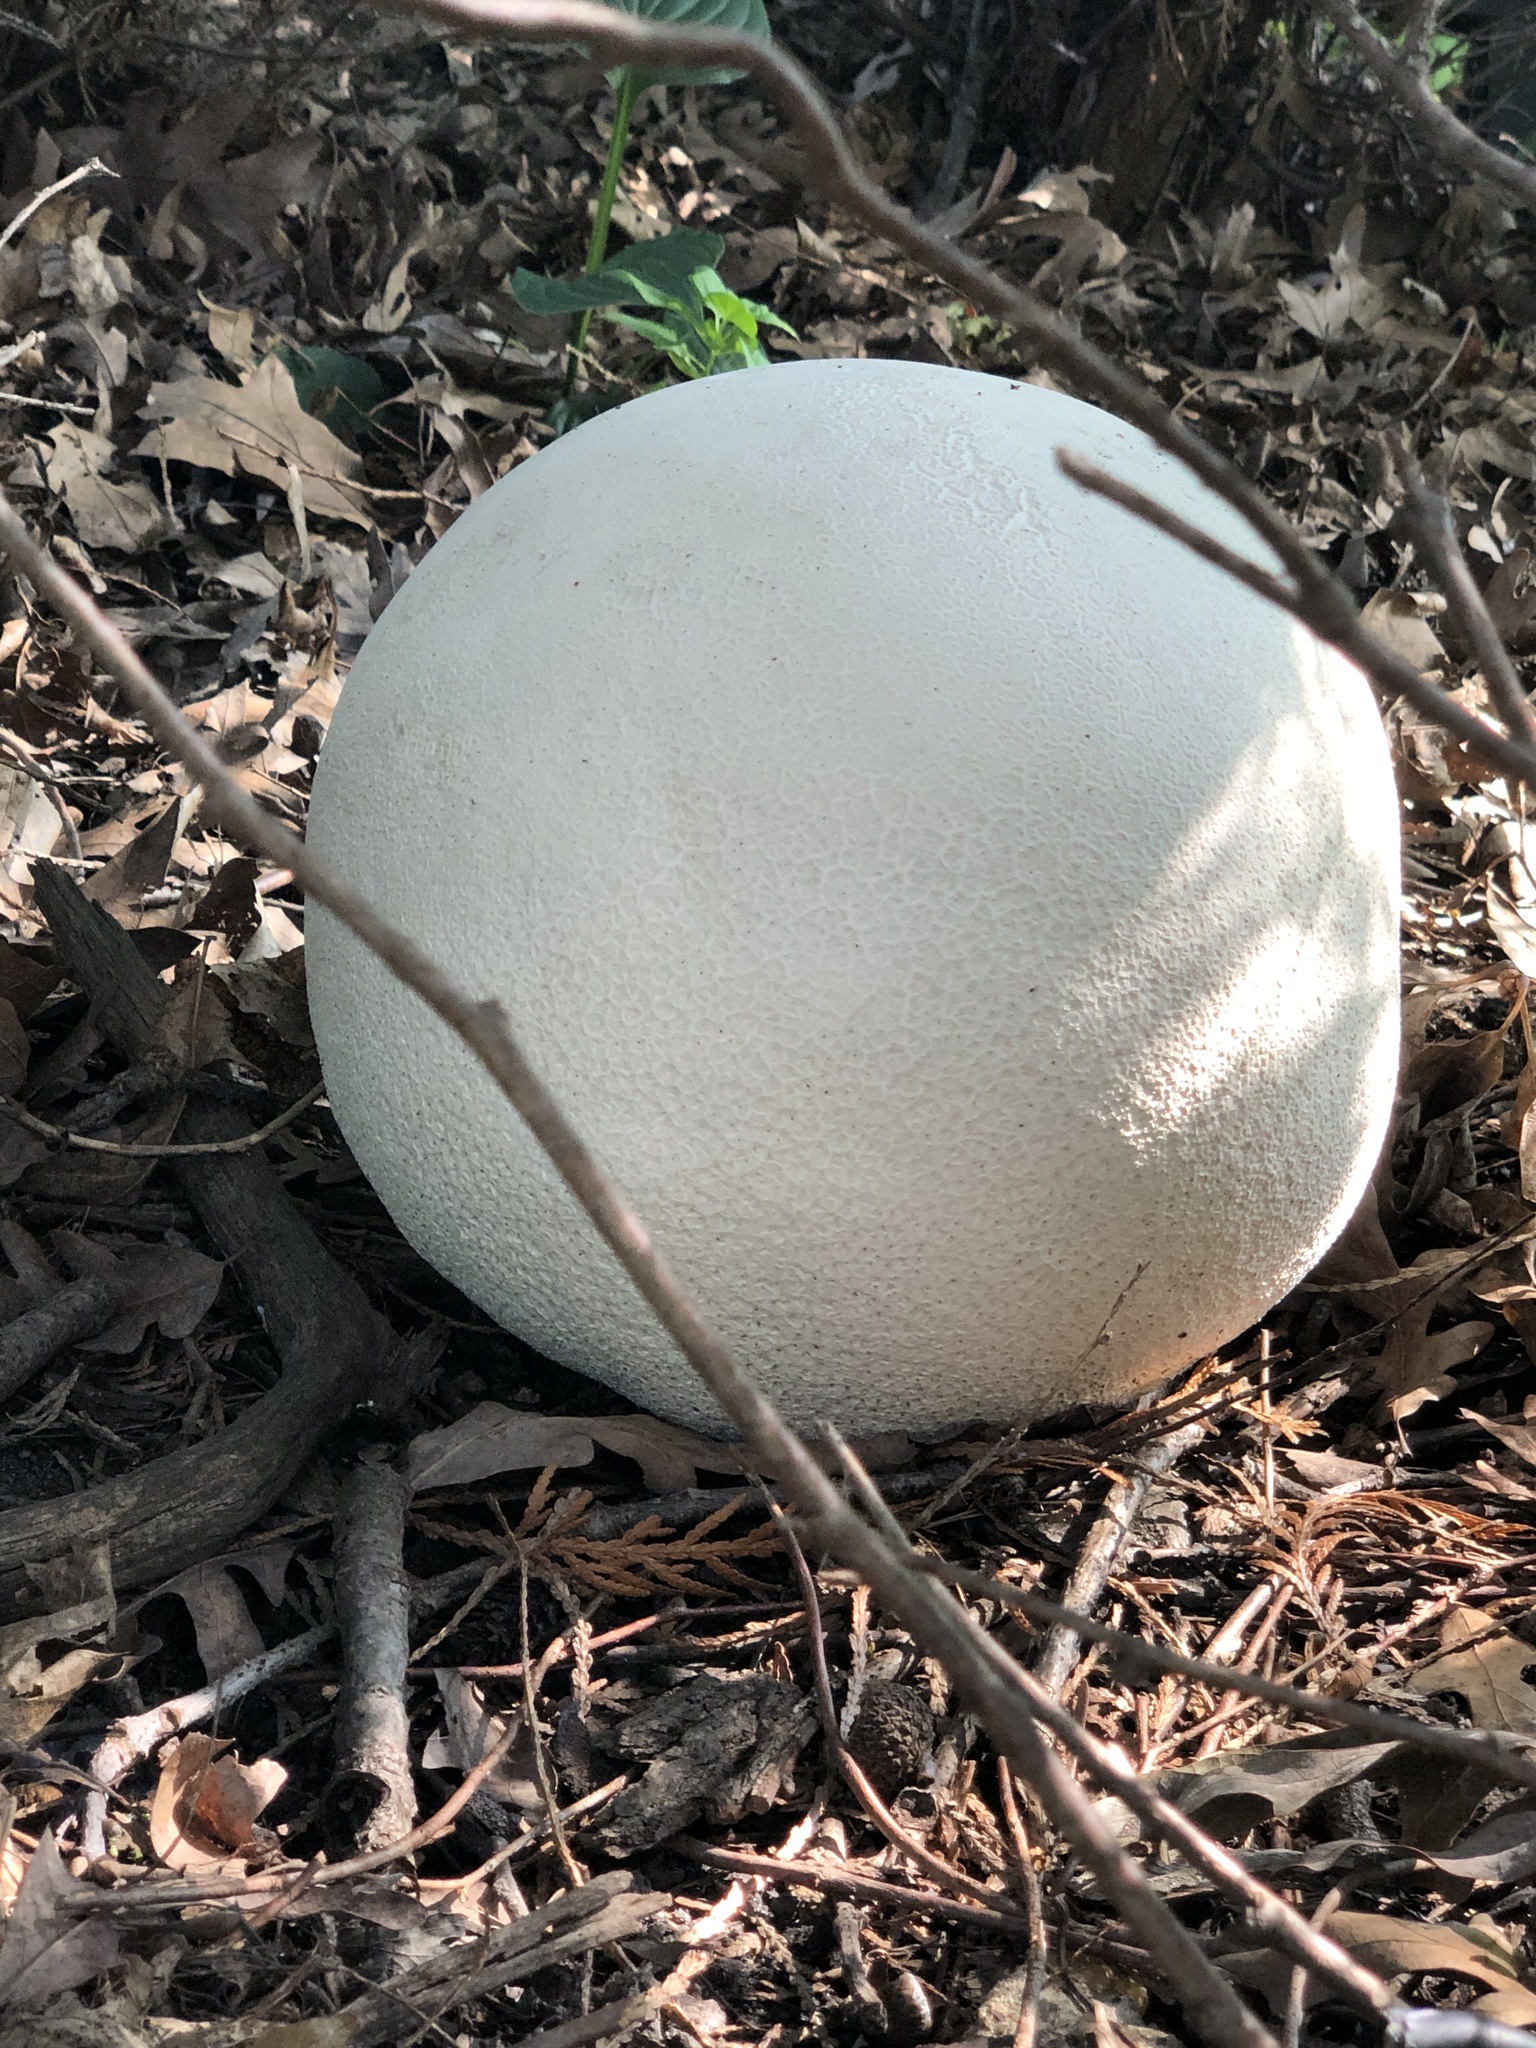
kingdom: Fungi
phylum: Basidiomycota
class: Agaricomycetes
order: Agaricales
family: Lycoperdaceae
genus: Calvatia
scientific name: Calvatia gigantea
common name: Giant puffball
